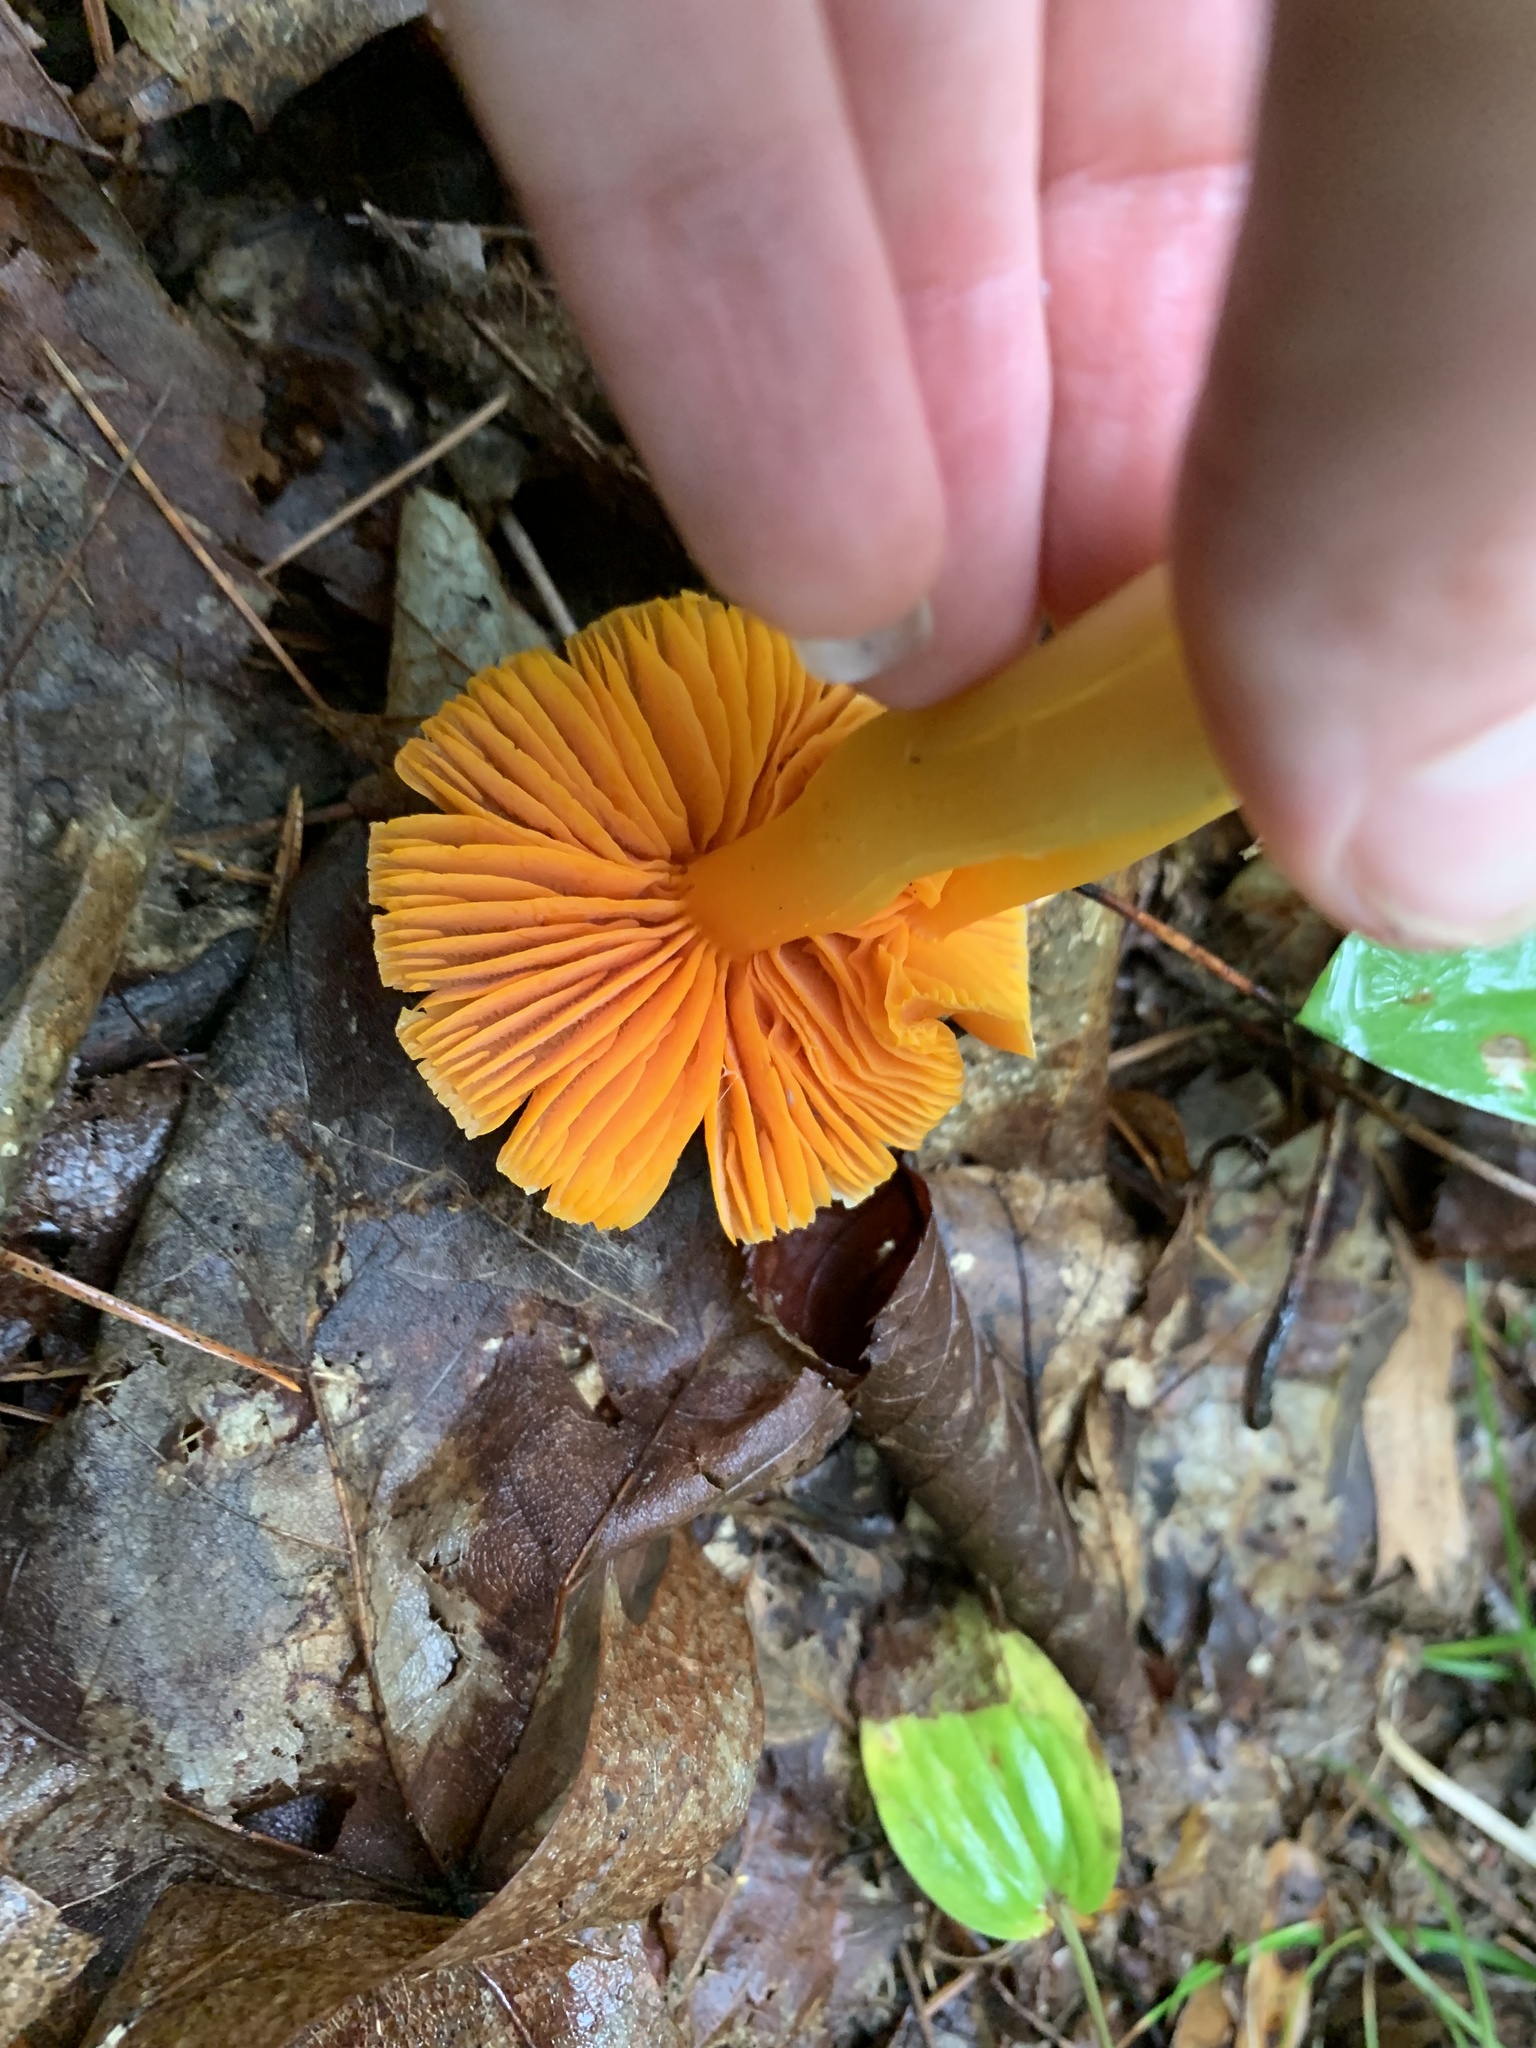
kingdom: Fungi
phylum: Basidiomycota
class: Agaricomycetes
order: Agaricales
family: Hygrophoraceae
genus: Humidicutis
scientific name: Humidicutis marginata
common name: Orange gilled waxcap
